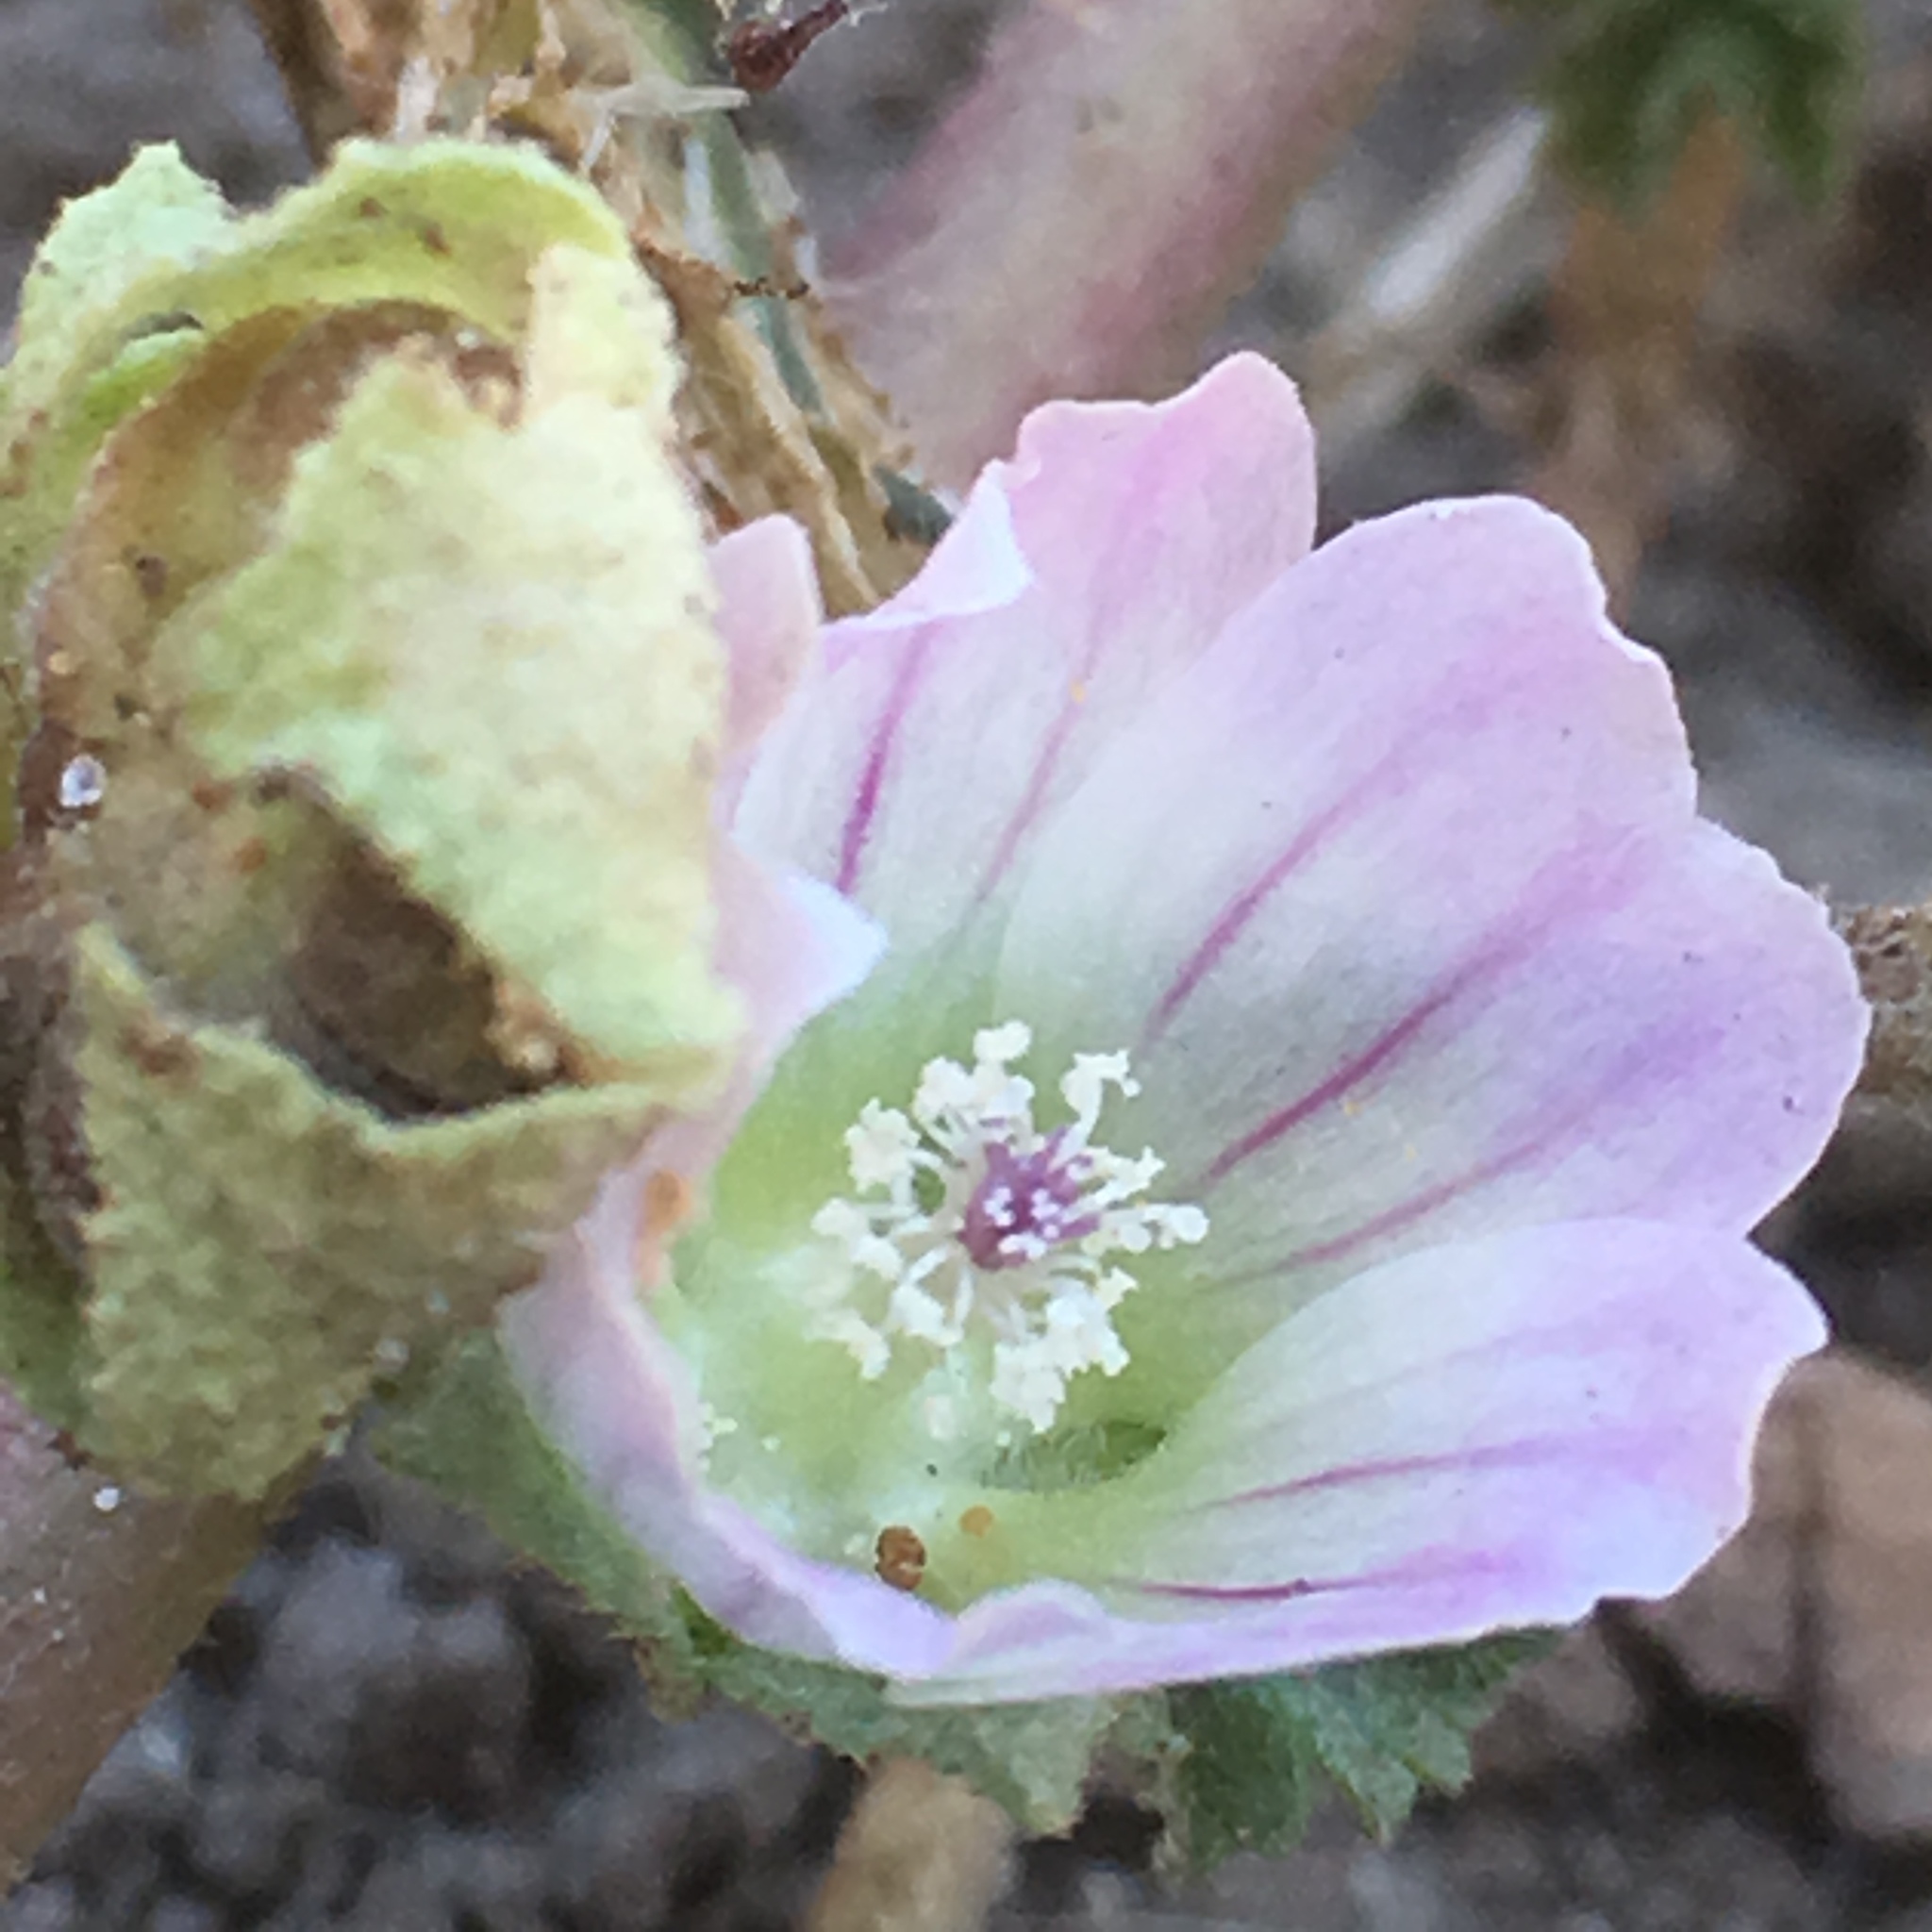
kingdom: Plantae
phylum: Tracheophyta
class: Magnoliopsida
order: Malvales
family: Malvaceae
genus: Malva
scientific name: Malva neglecta
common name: Common mallow
